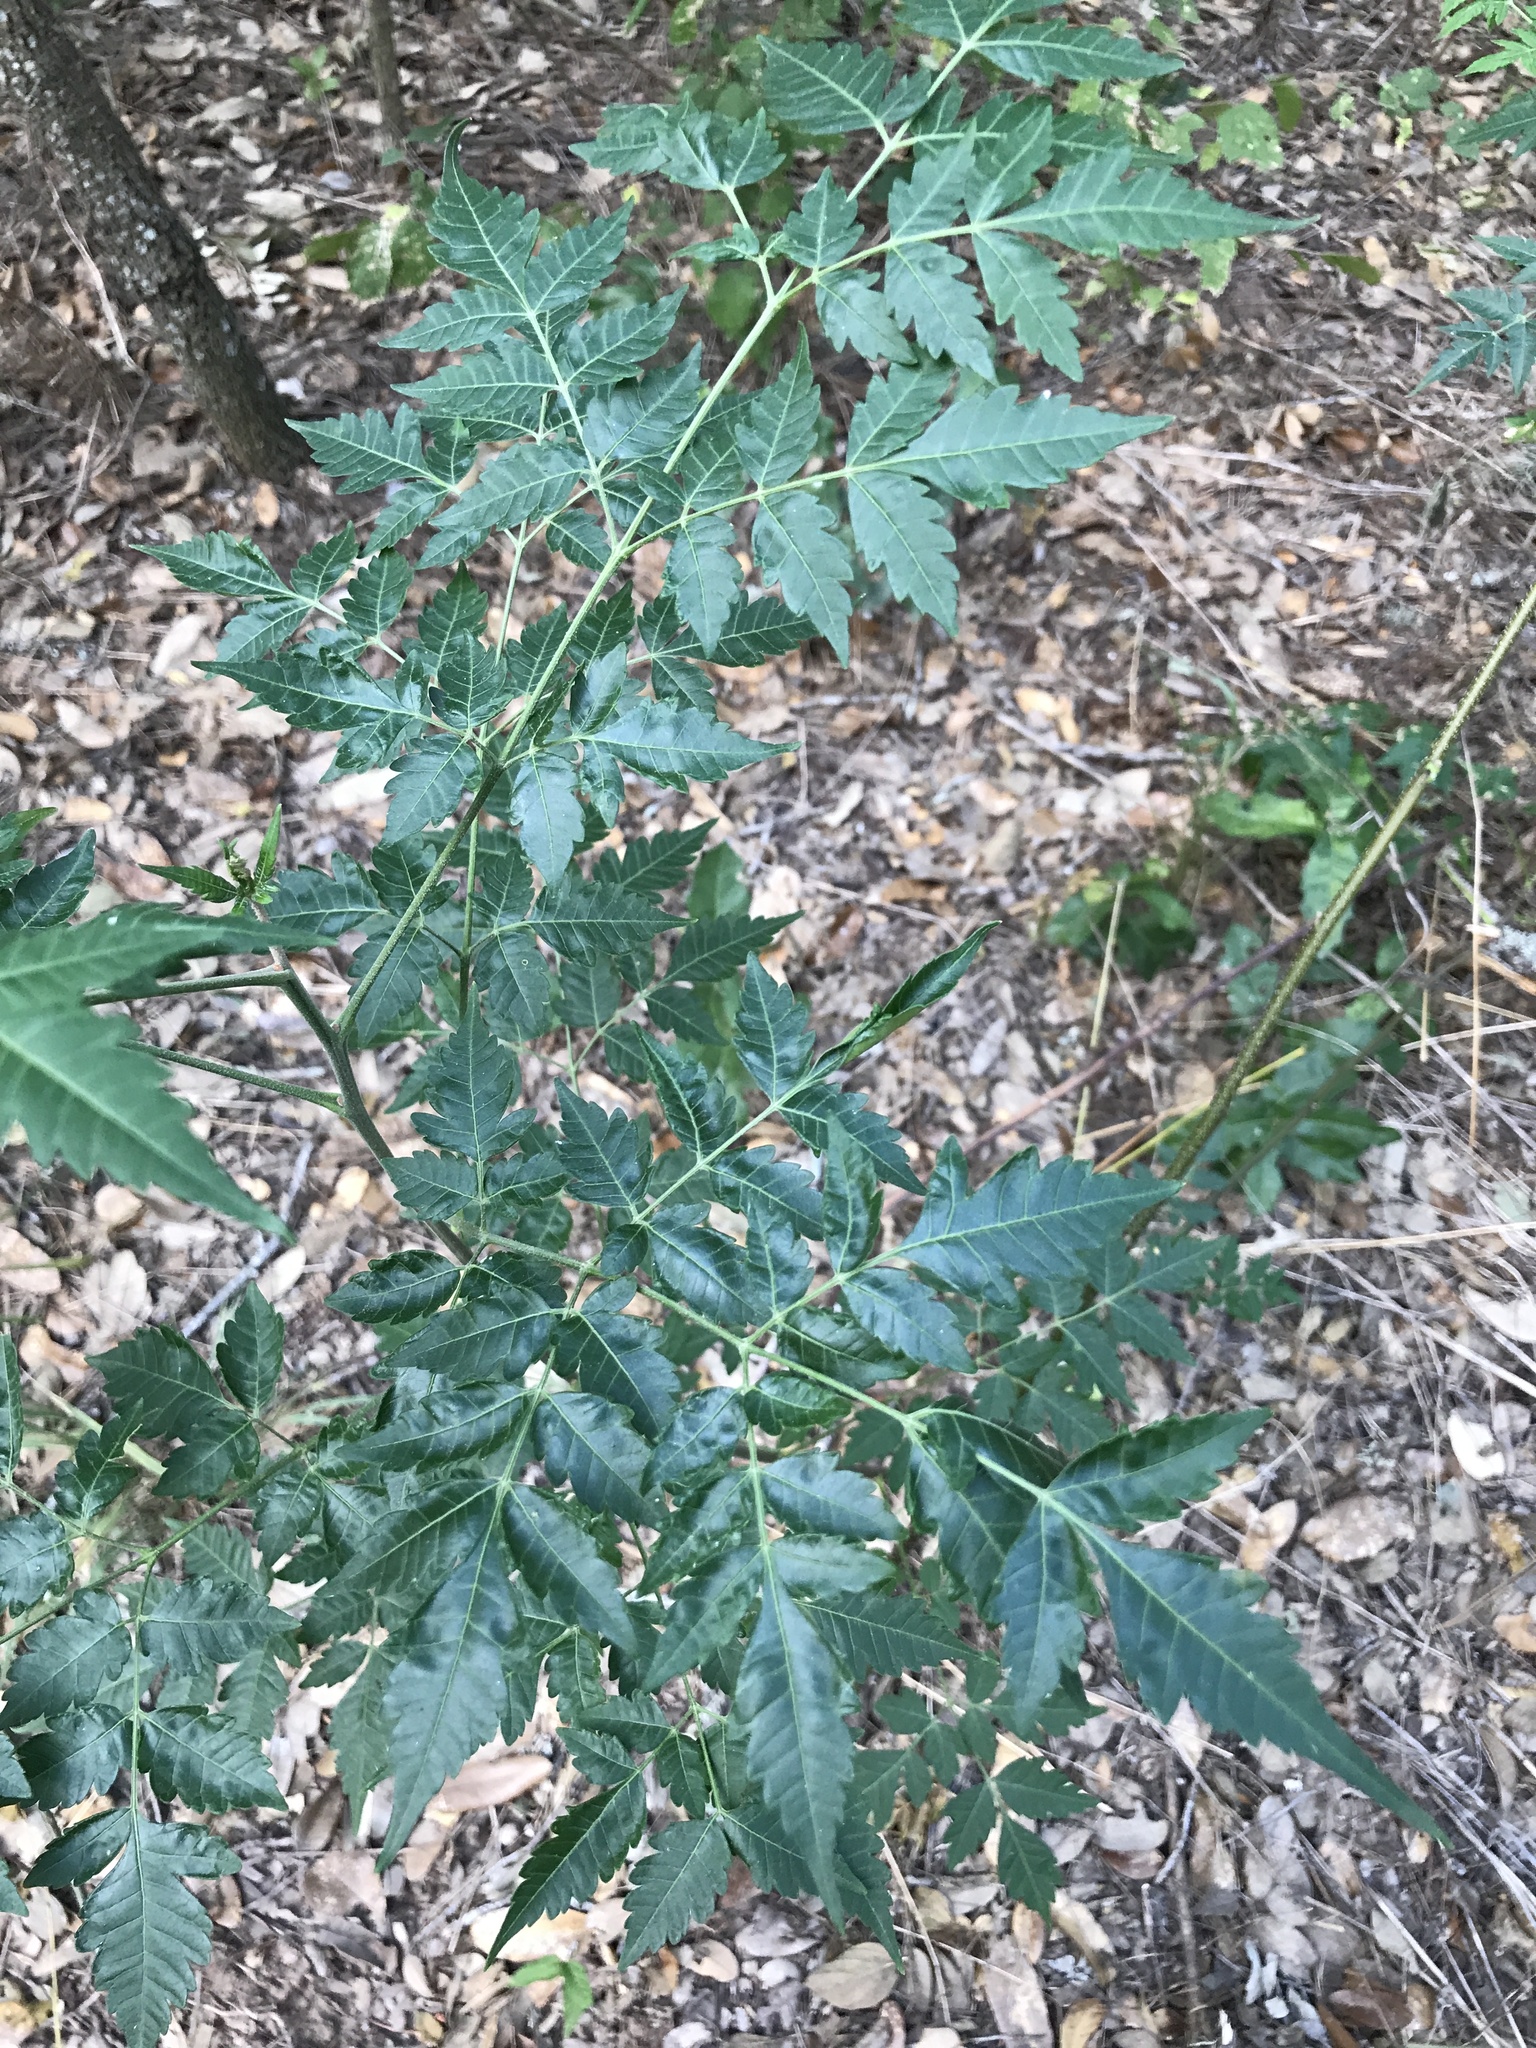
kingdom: Plantae
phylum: Tracheophyta
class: Magnoliopsida
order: Sapindales
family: Meliaceae
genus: Melia
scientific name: Melia azedarach
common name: Chinaberrytree
